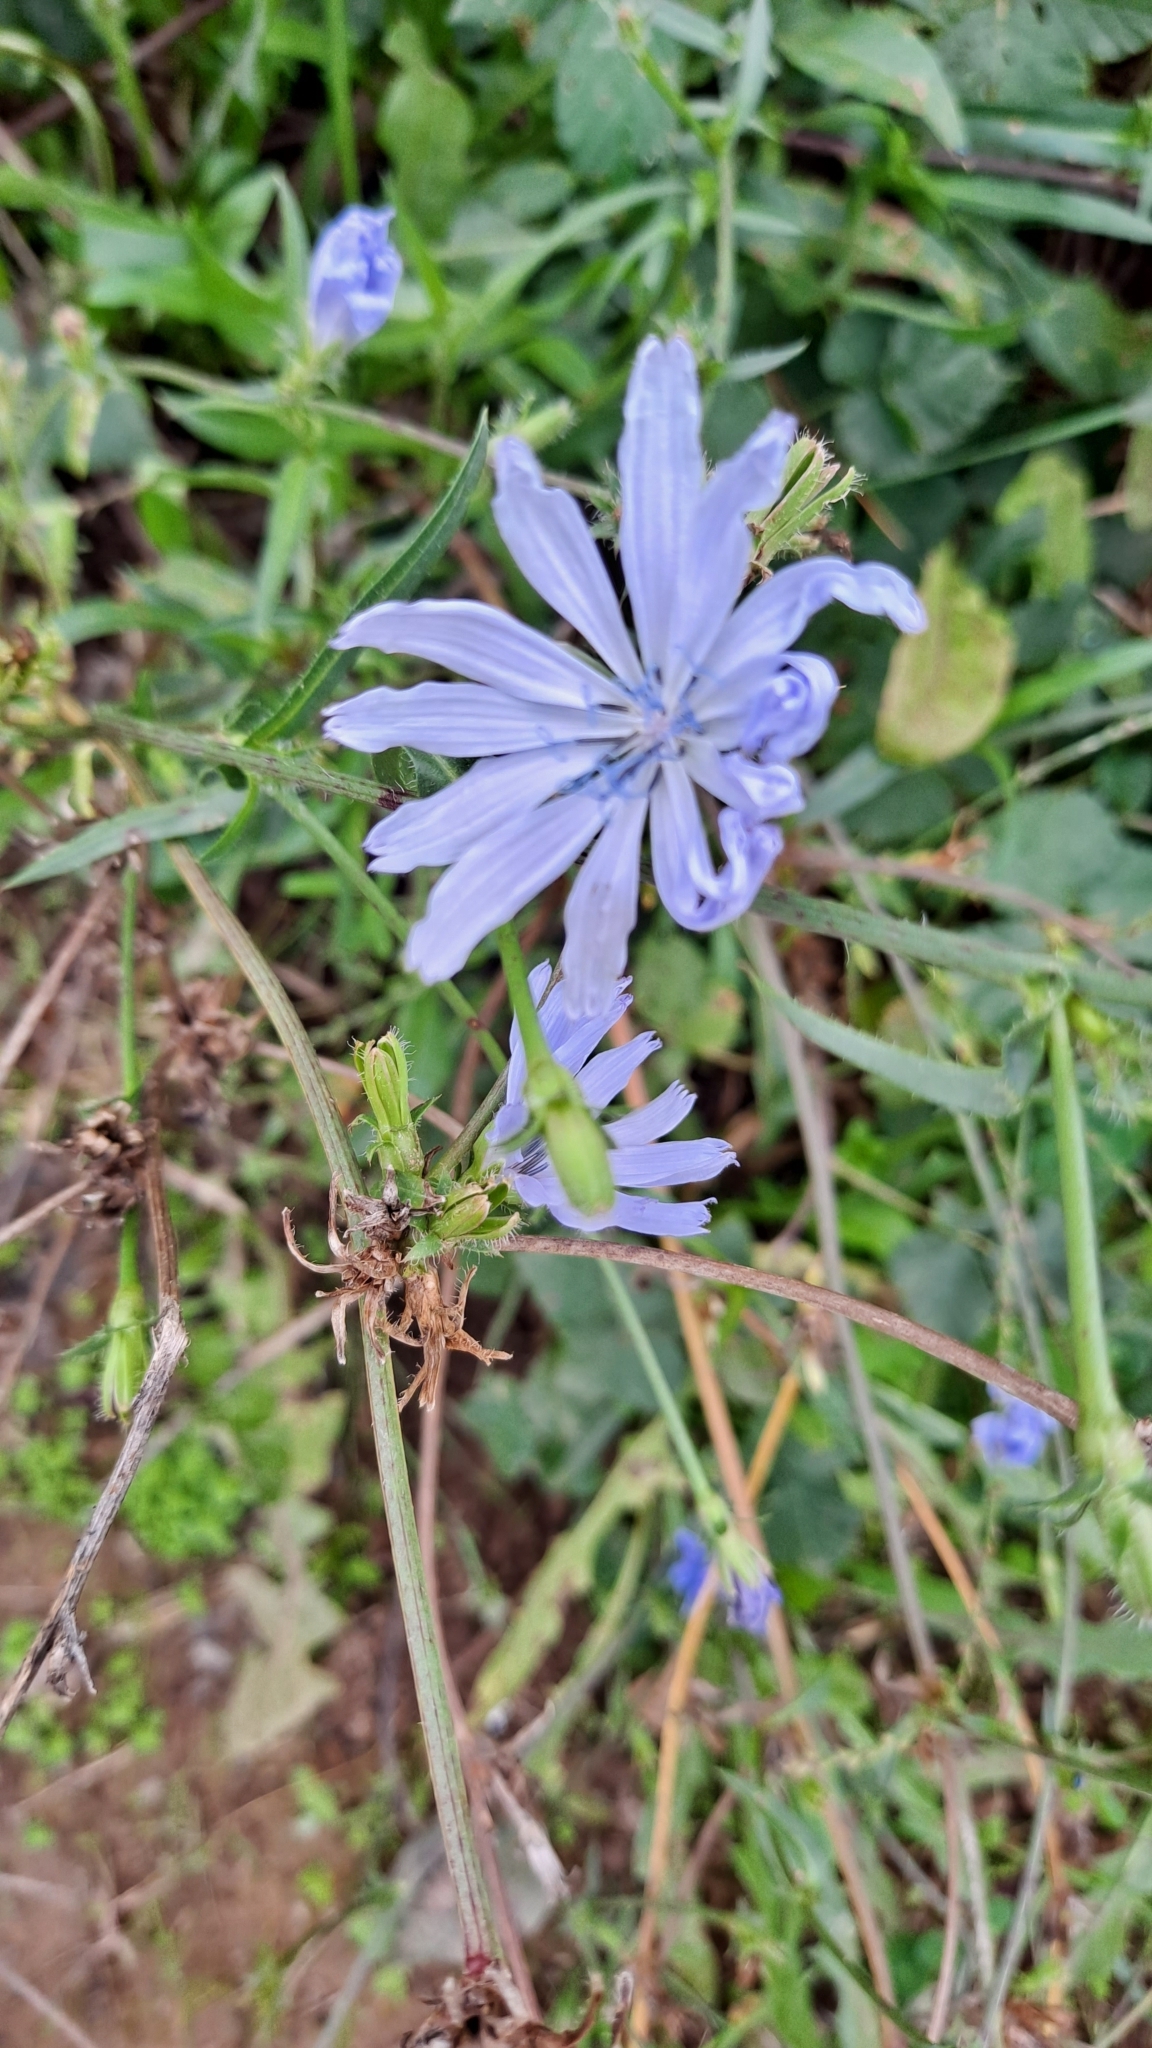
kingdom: Plantae
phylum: Tracheophyta
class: Magnoliopsida
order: Asterales
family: Asteraceae
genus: Cichorium
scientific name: Cichorium intybus
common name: Chicory
